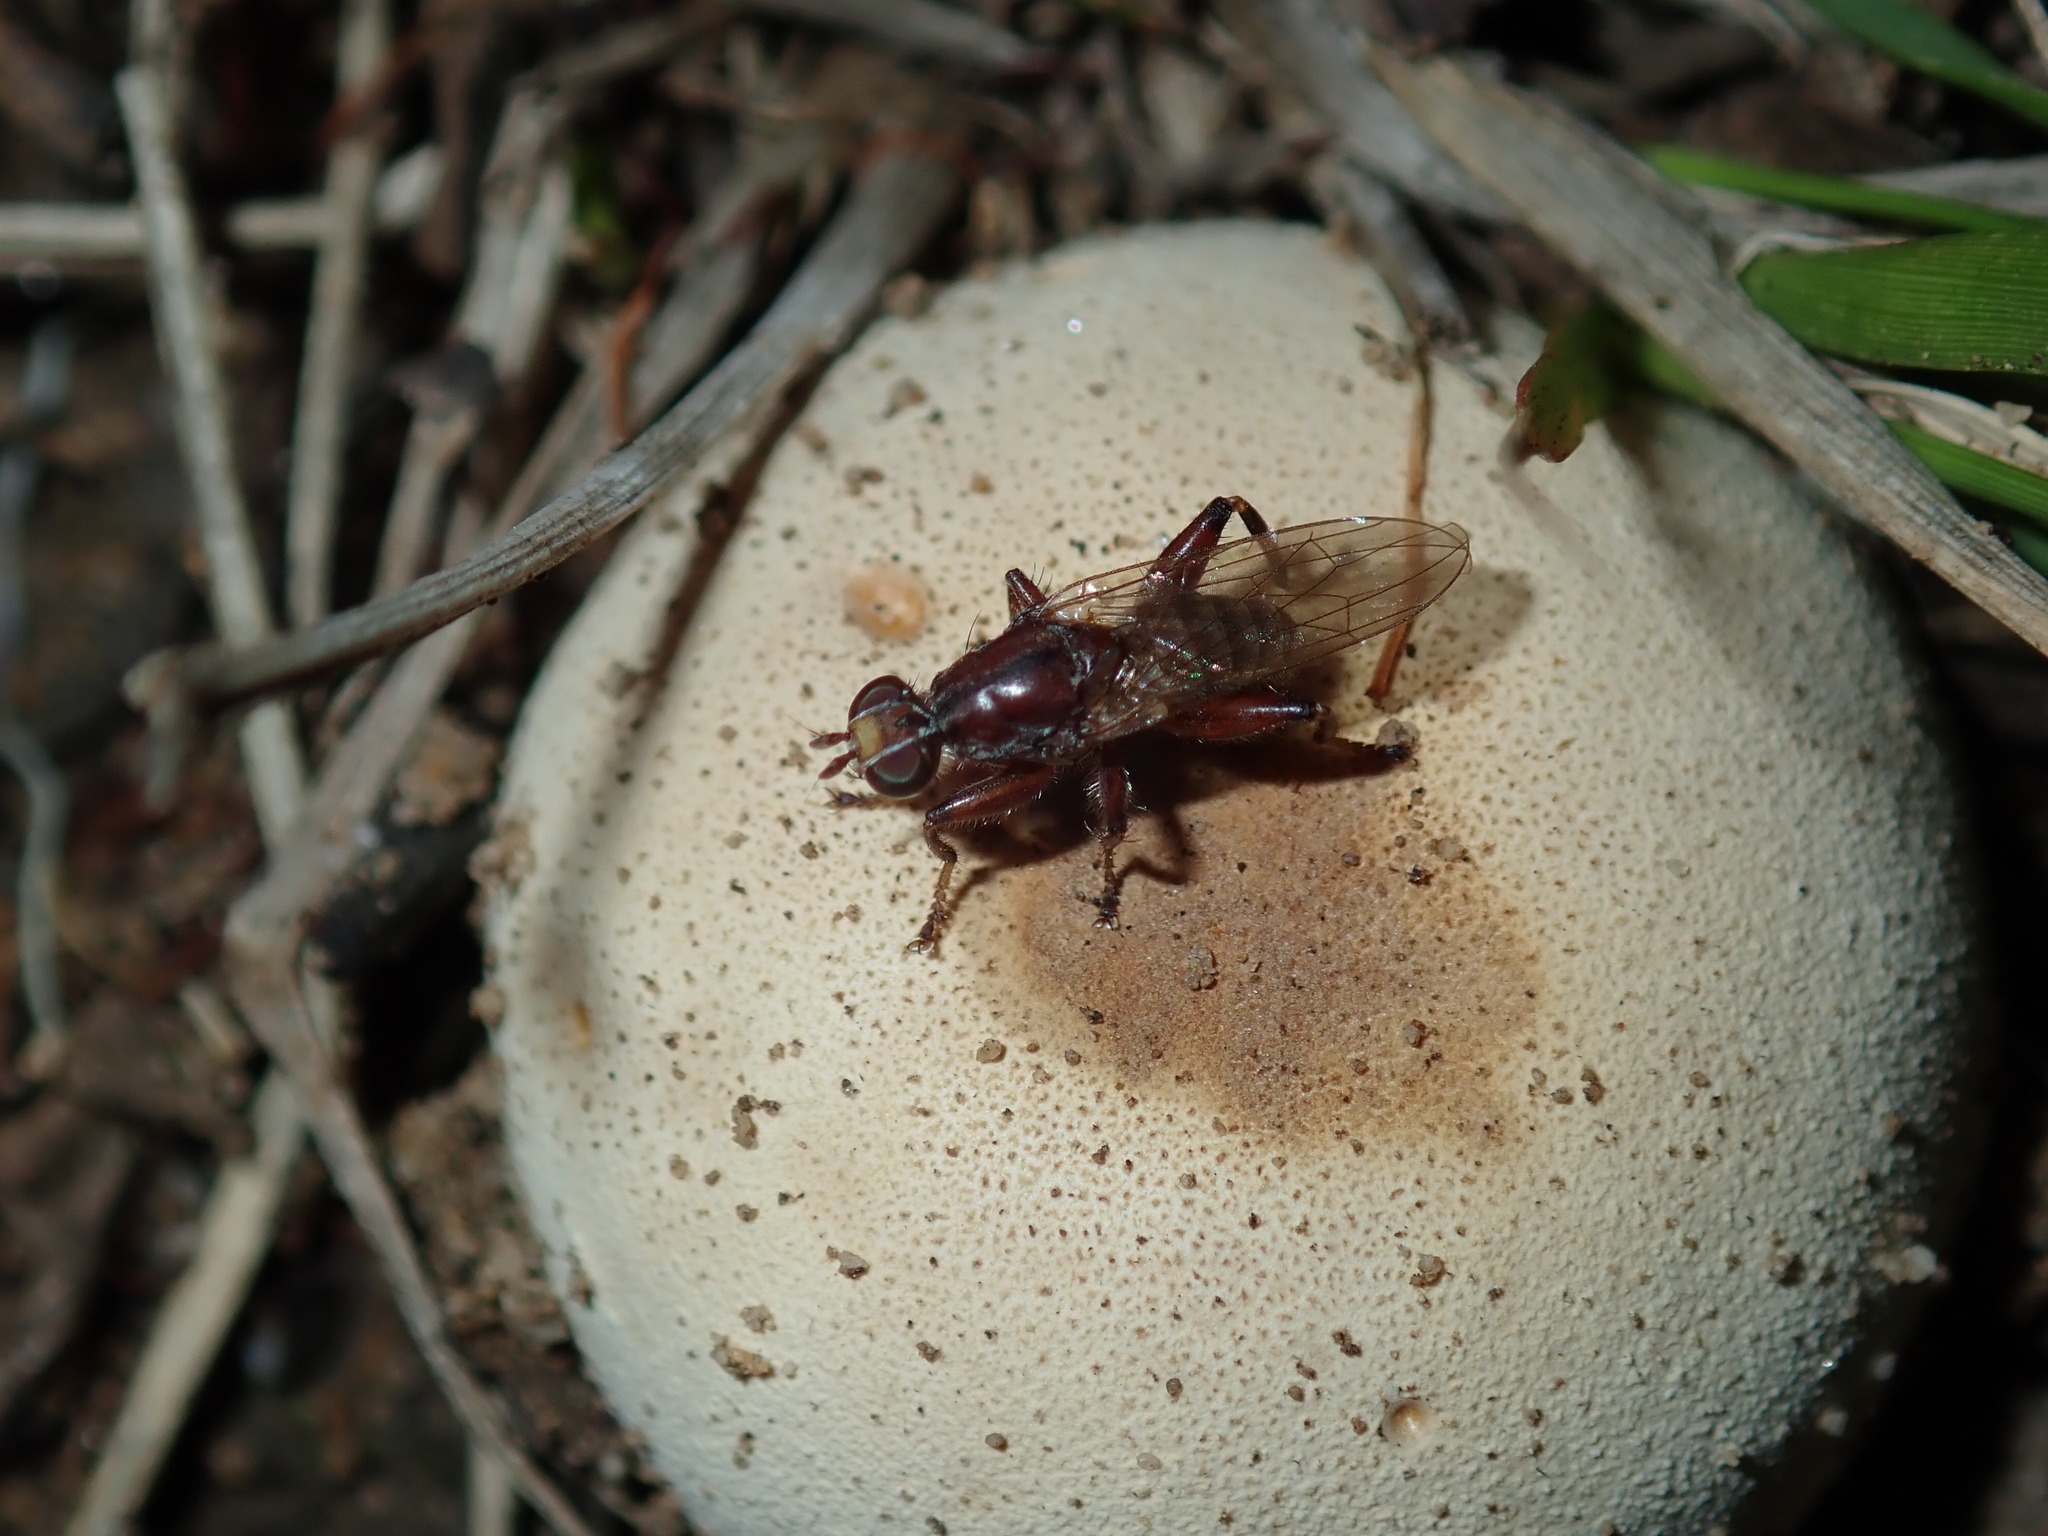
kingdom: Animalia
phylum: Arthropoda
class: Insecta
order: Diptera
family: Heleomyzidae
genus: Tapeigaster
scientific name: Tapeigaster nigricornis
